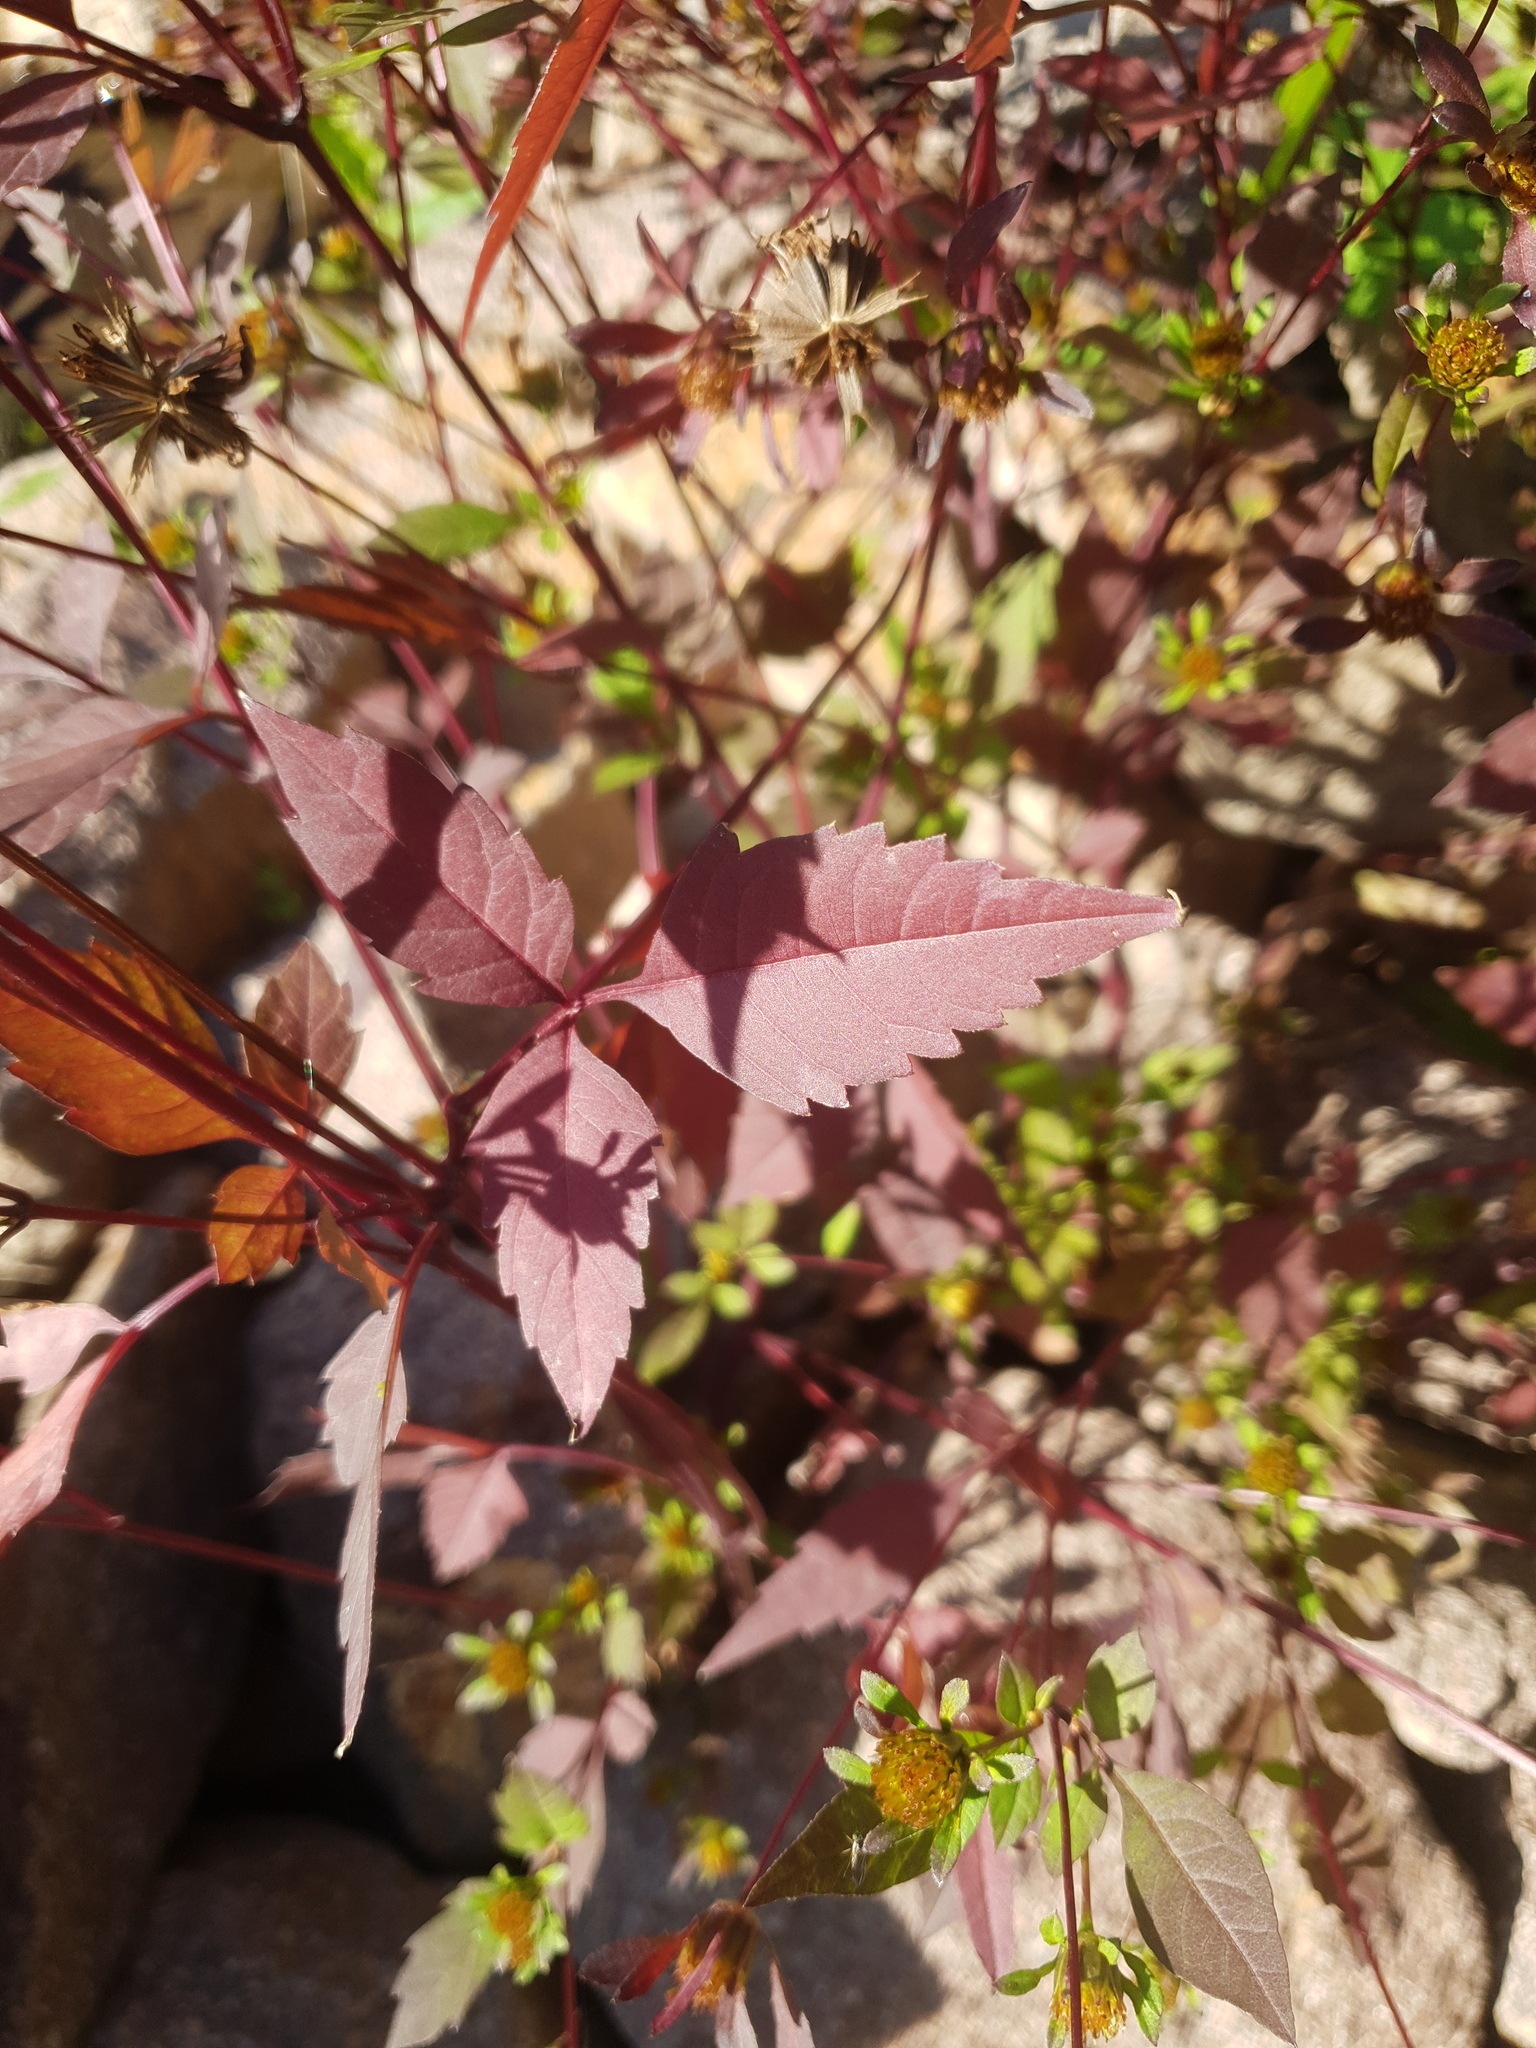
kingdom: Plantae
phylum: Tracheophyta
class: Magnoliopsida
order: Asterales
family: Asteraceae
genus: Bidens
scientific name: Bidens frondosa
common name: Beggarticks
